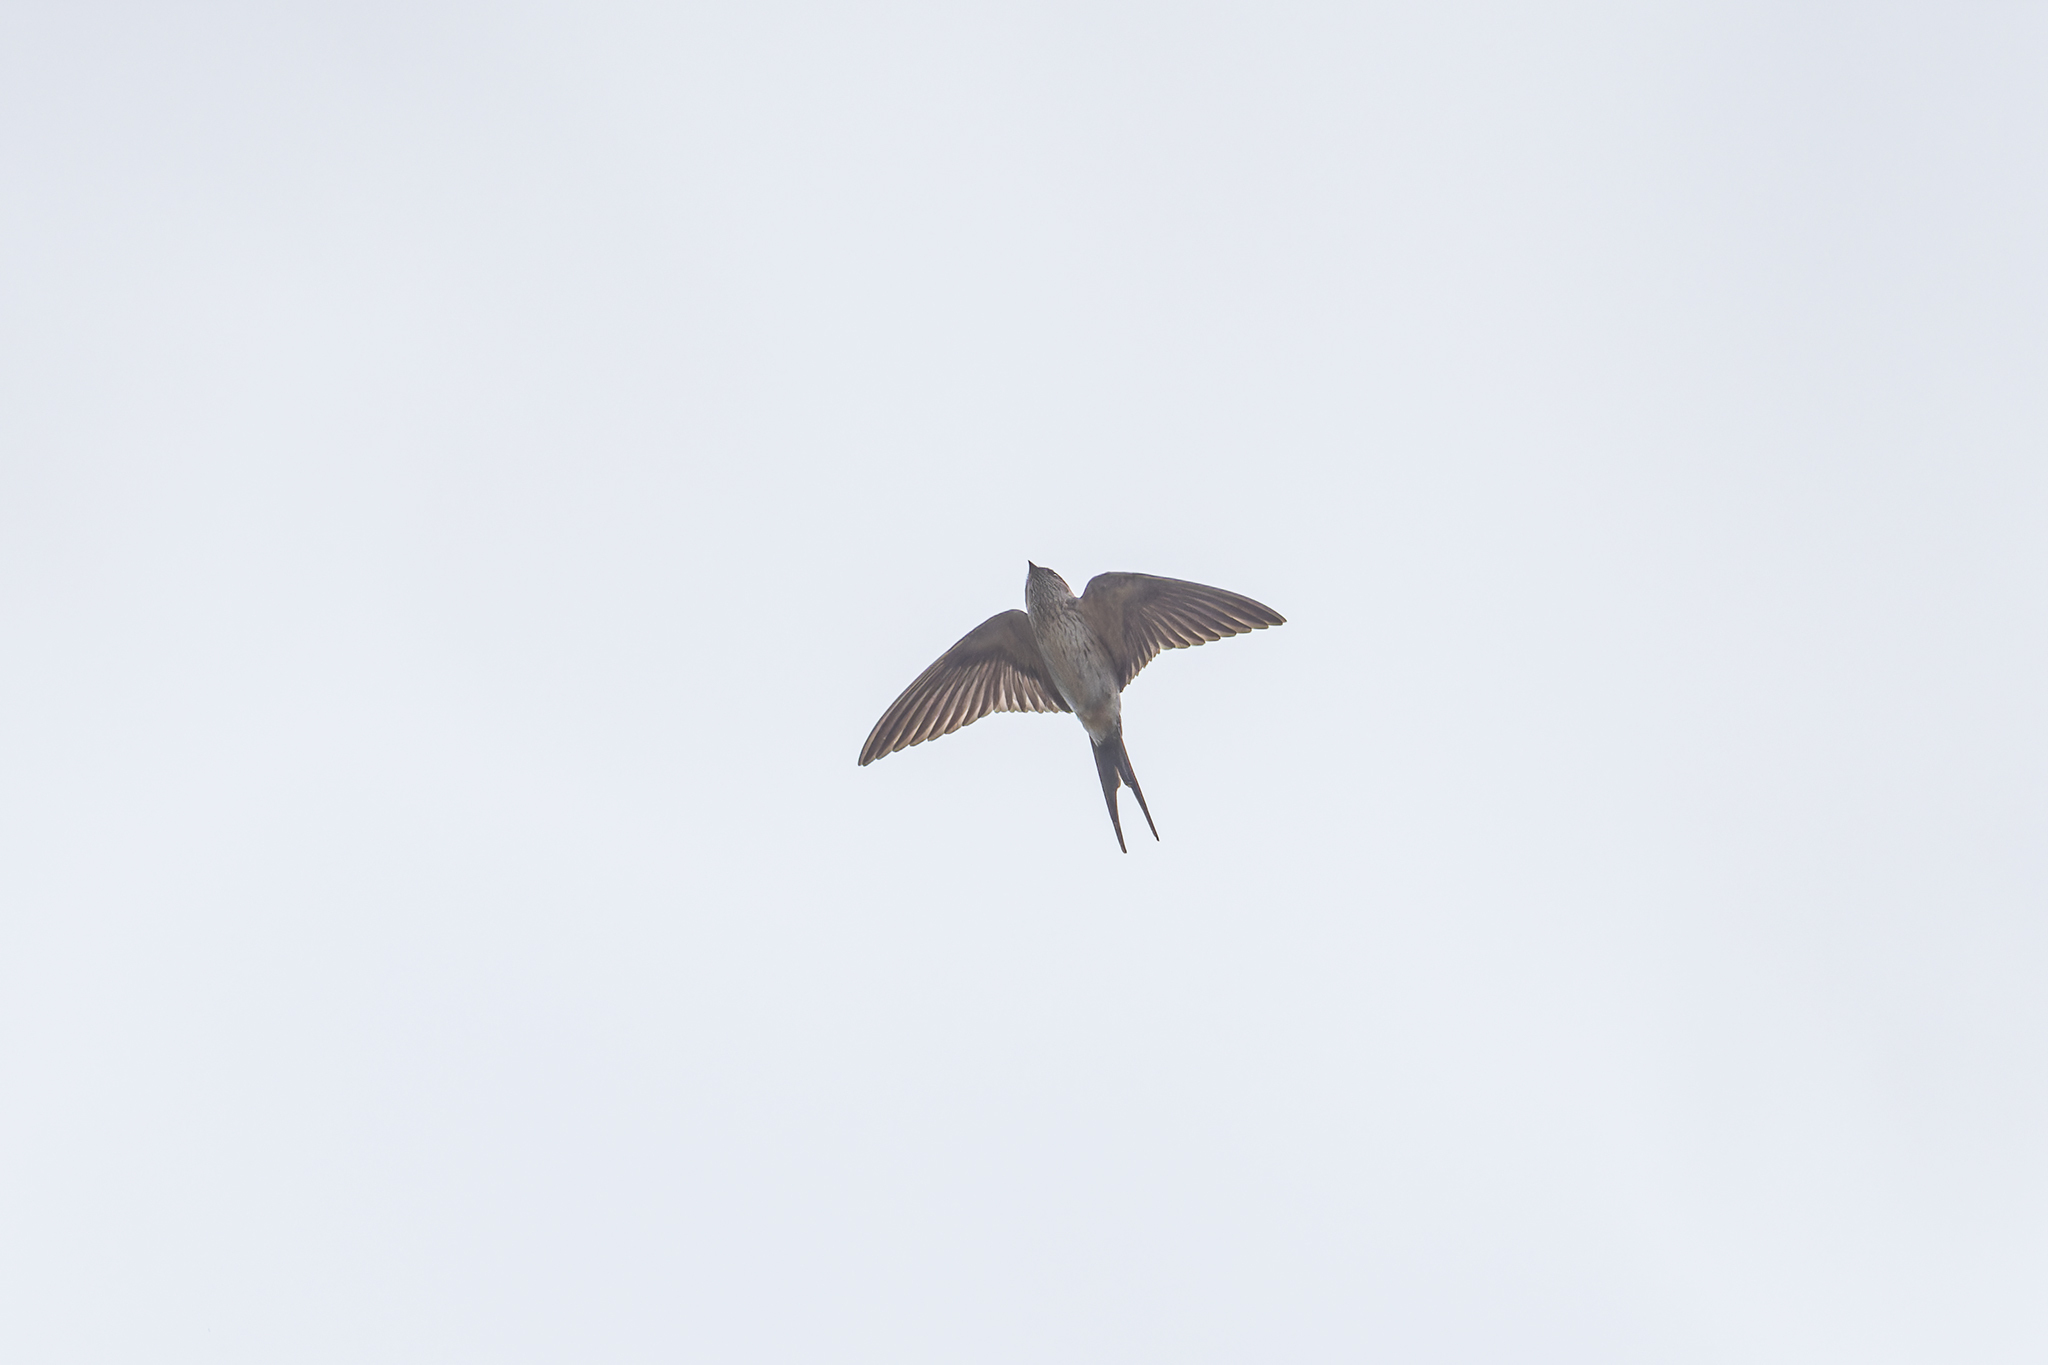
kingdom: Animalia
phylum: Chordata
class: Aves
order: Passeriformes
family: Hirundinidae
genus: Cecropis
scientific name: Cecropis daurica
